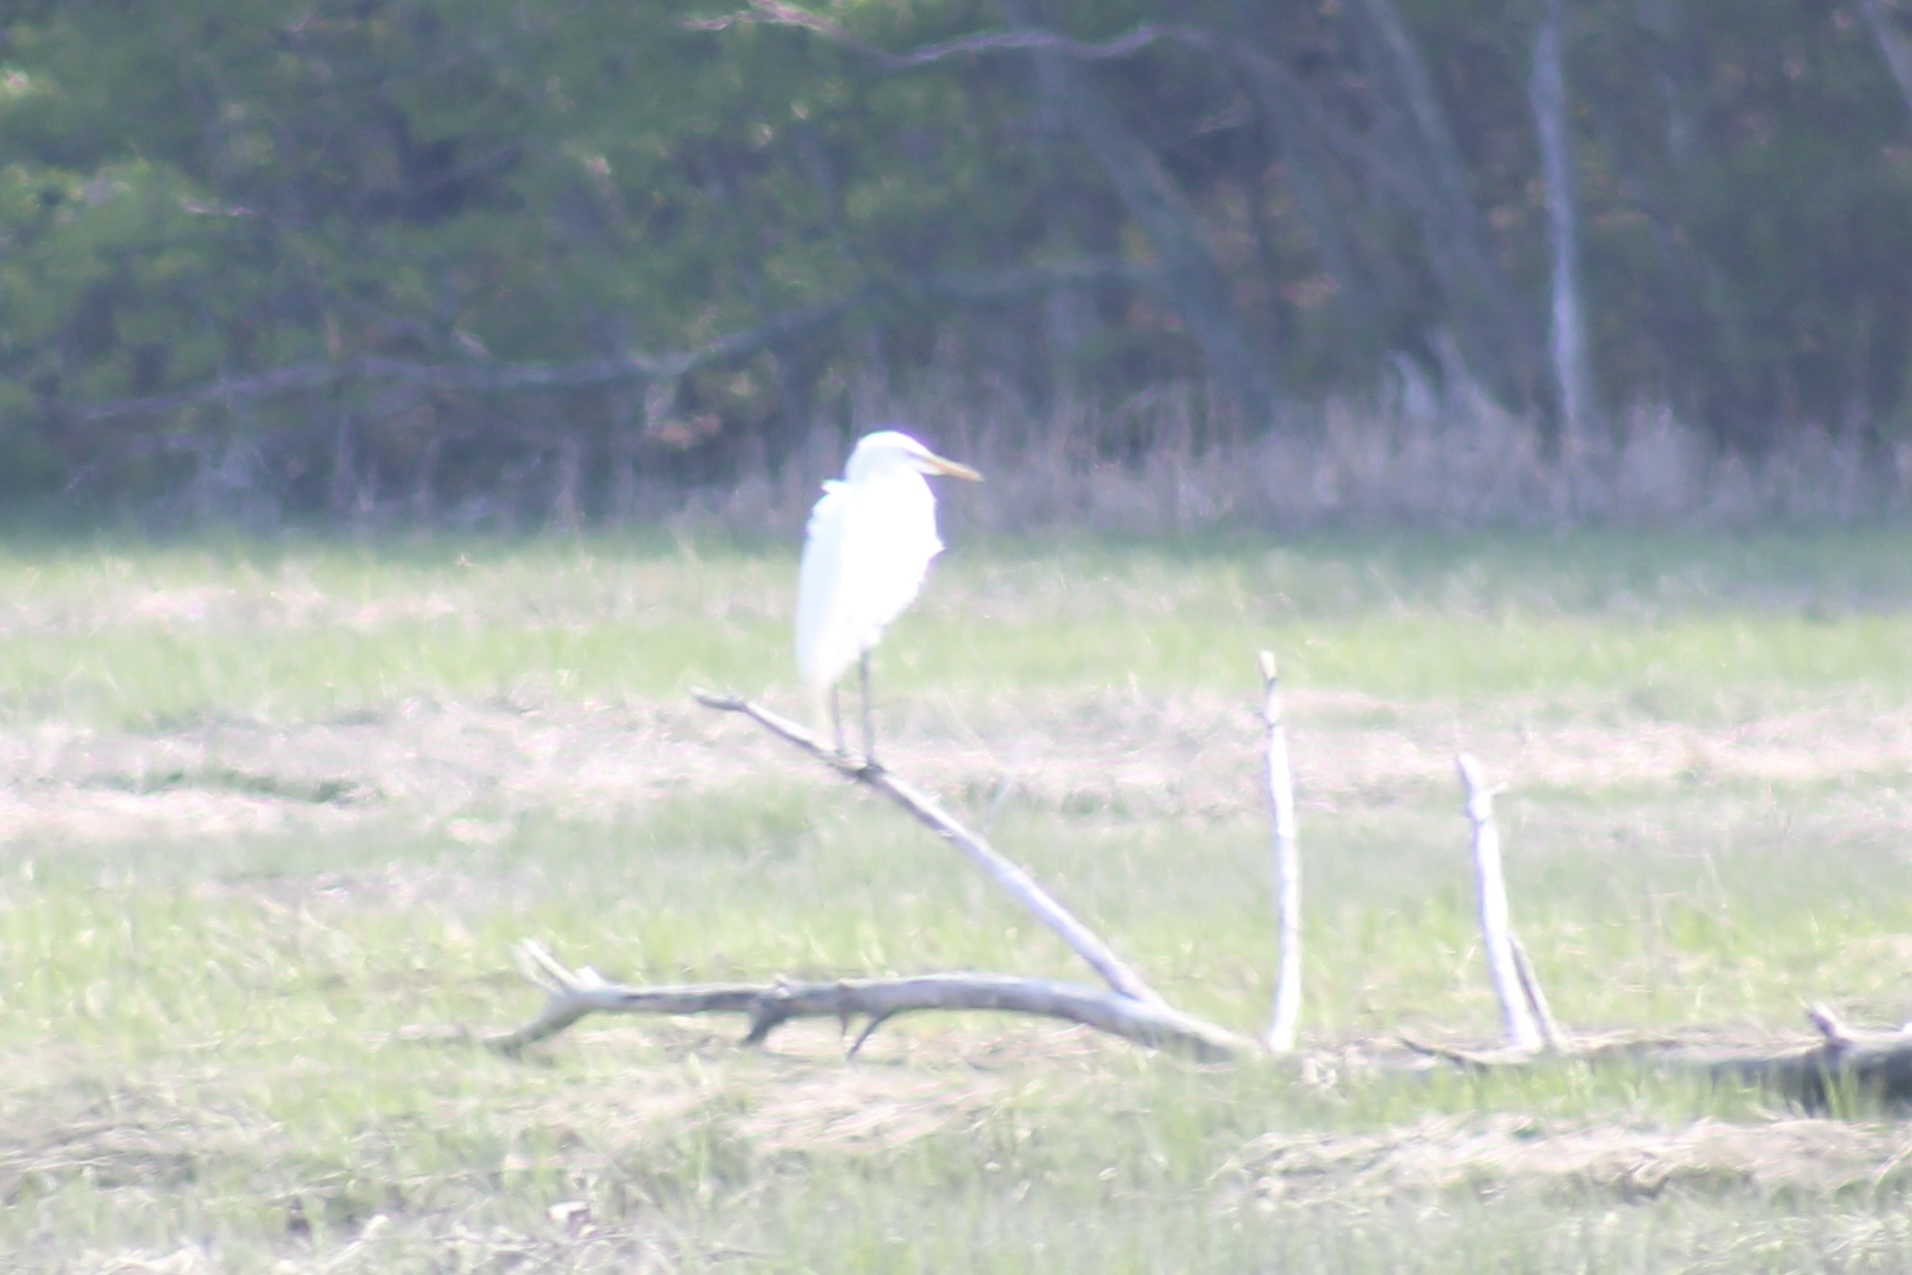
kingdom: Animalia
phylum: Chordata
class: Aves
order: Pelecaniformes
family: Ardeidae
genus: Ardea
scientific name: Ardea alba
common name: Great egret
